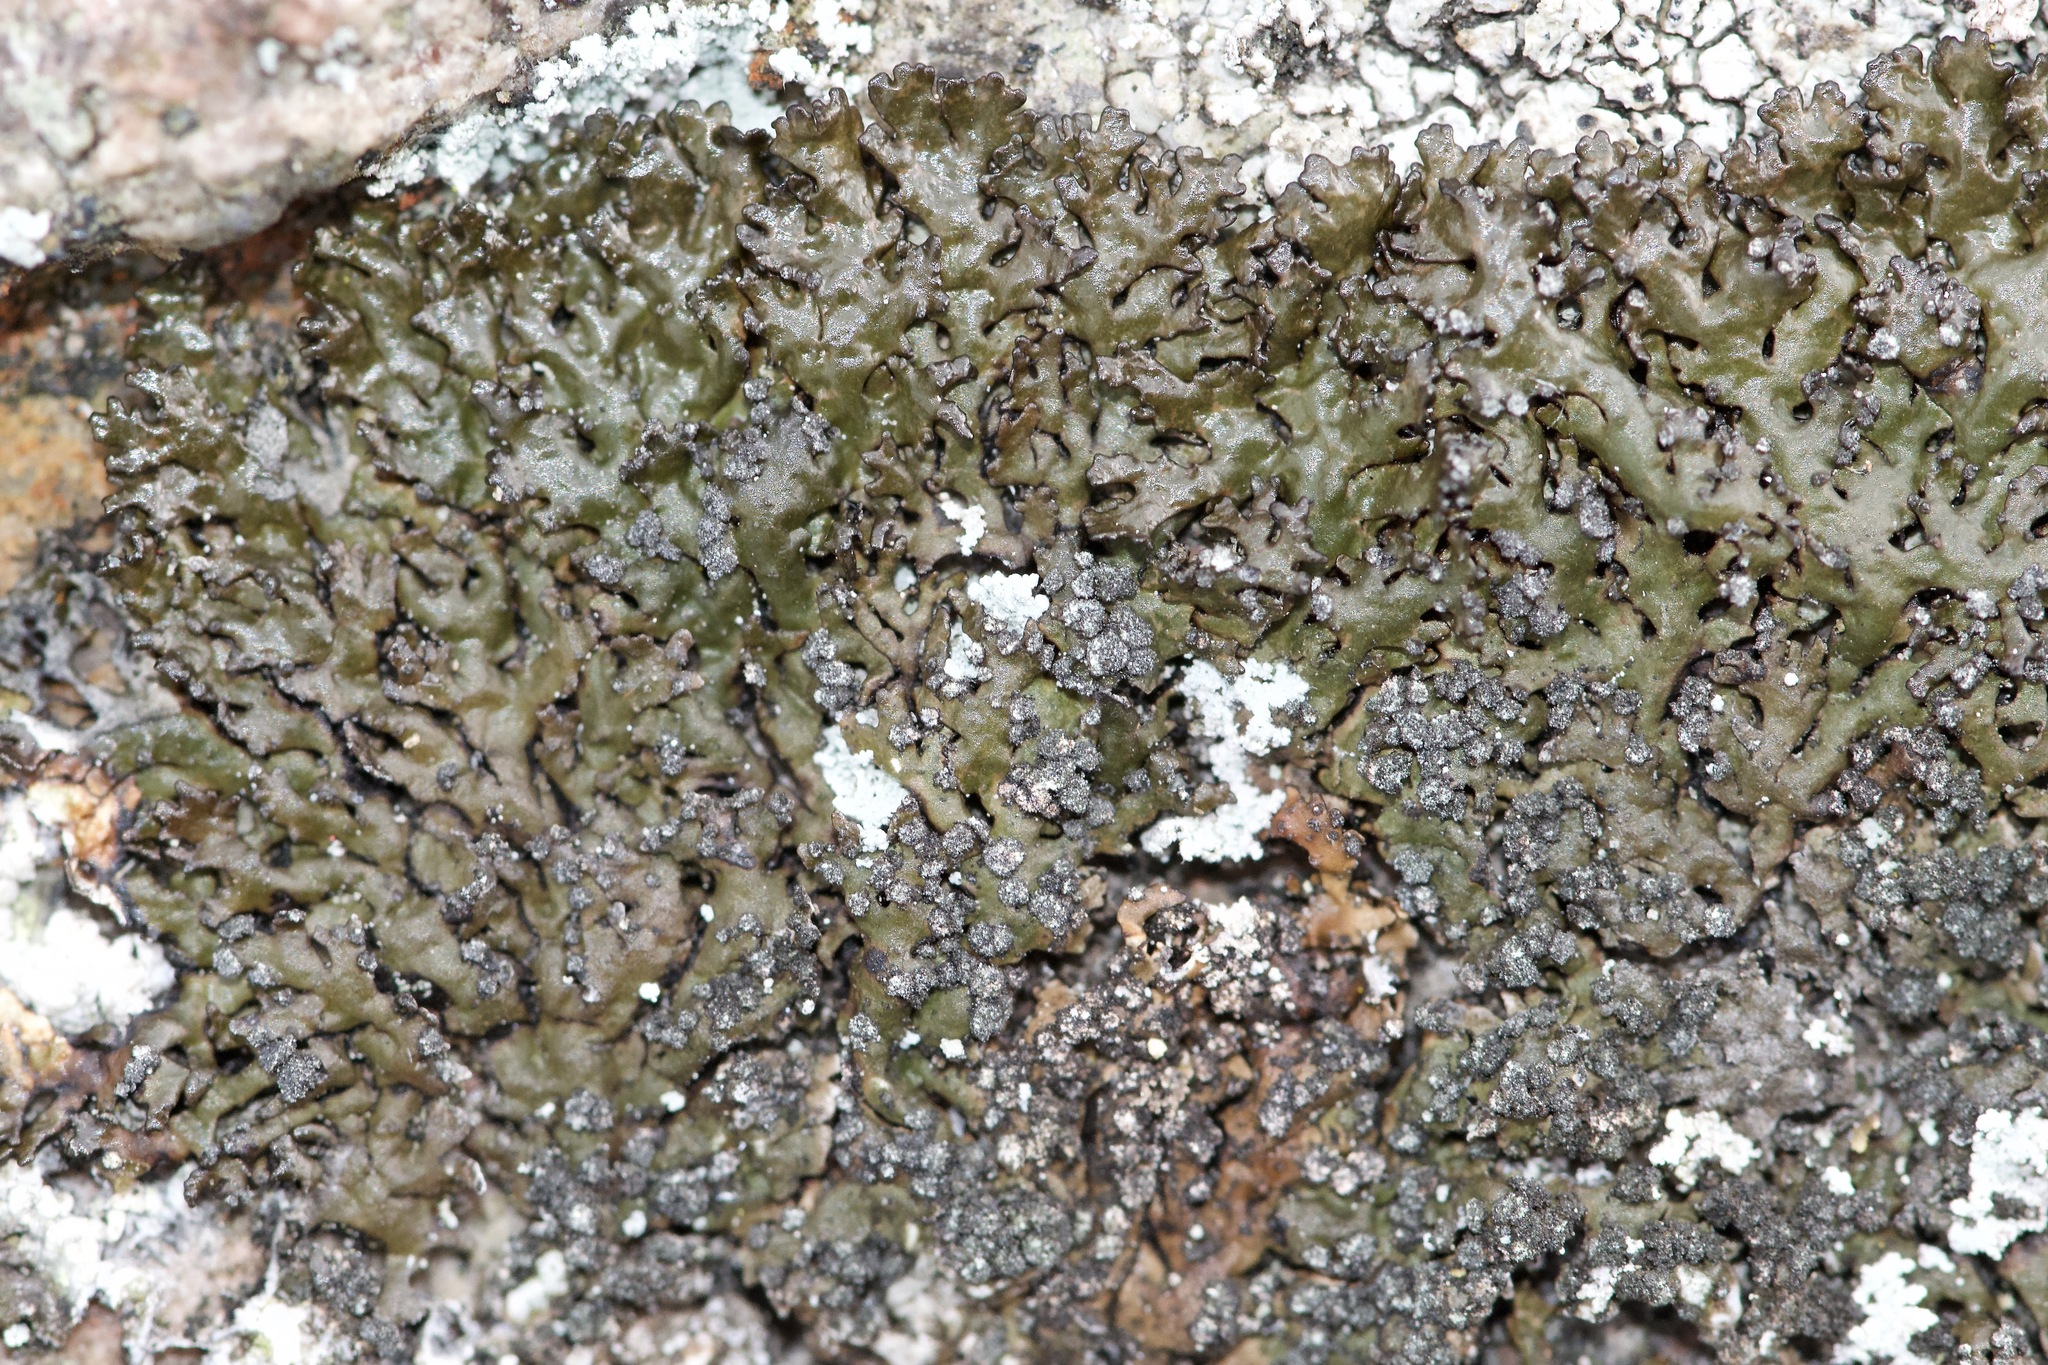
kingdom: Fungi
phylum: Ascomycota
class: Lecanoromycetes
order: Lecanorales
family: Parmeliaceae
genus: Montanelia
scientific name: Montanelia sorediata
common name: Powdered camouflage lichen
